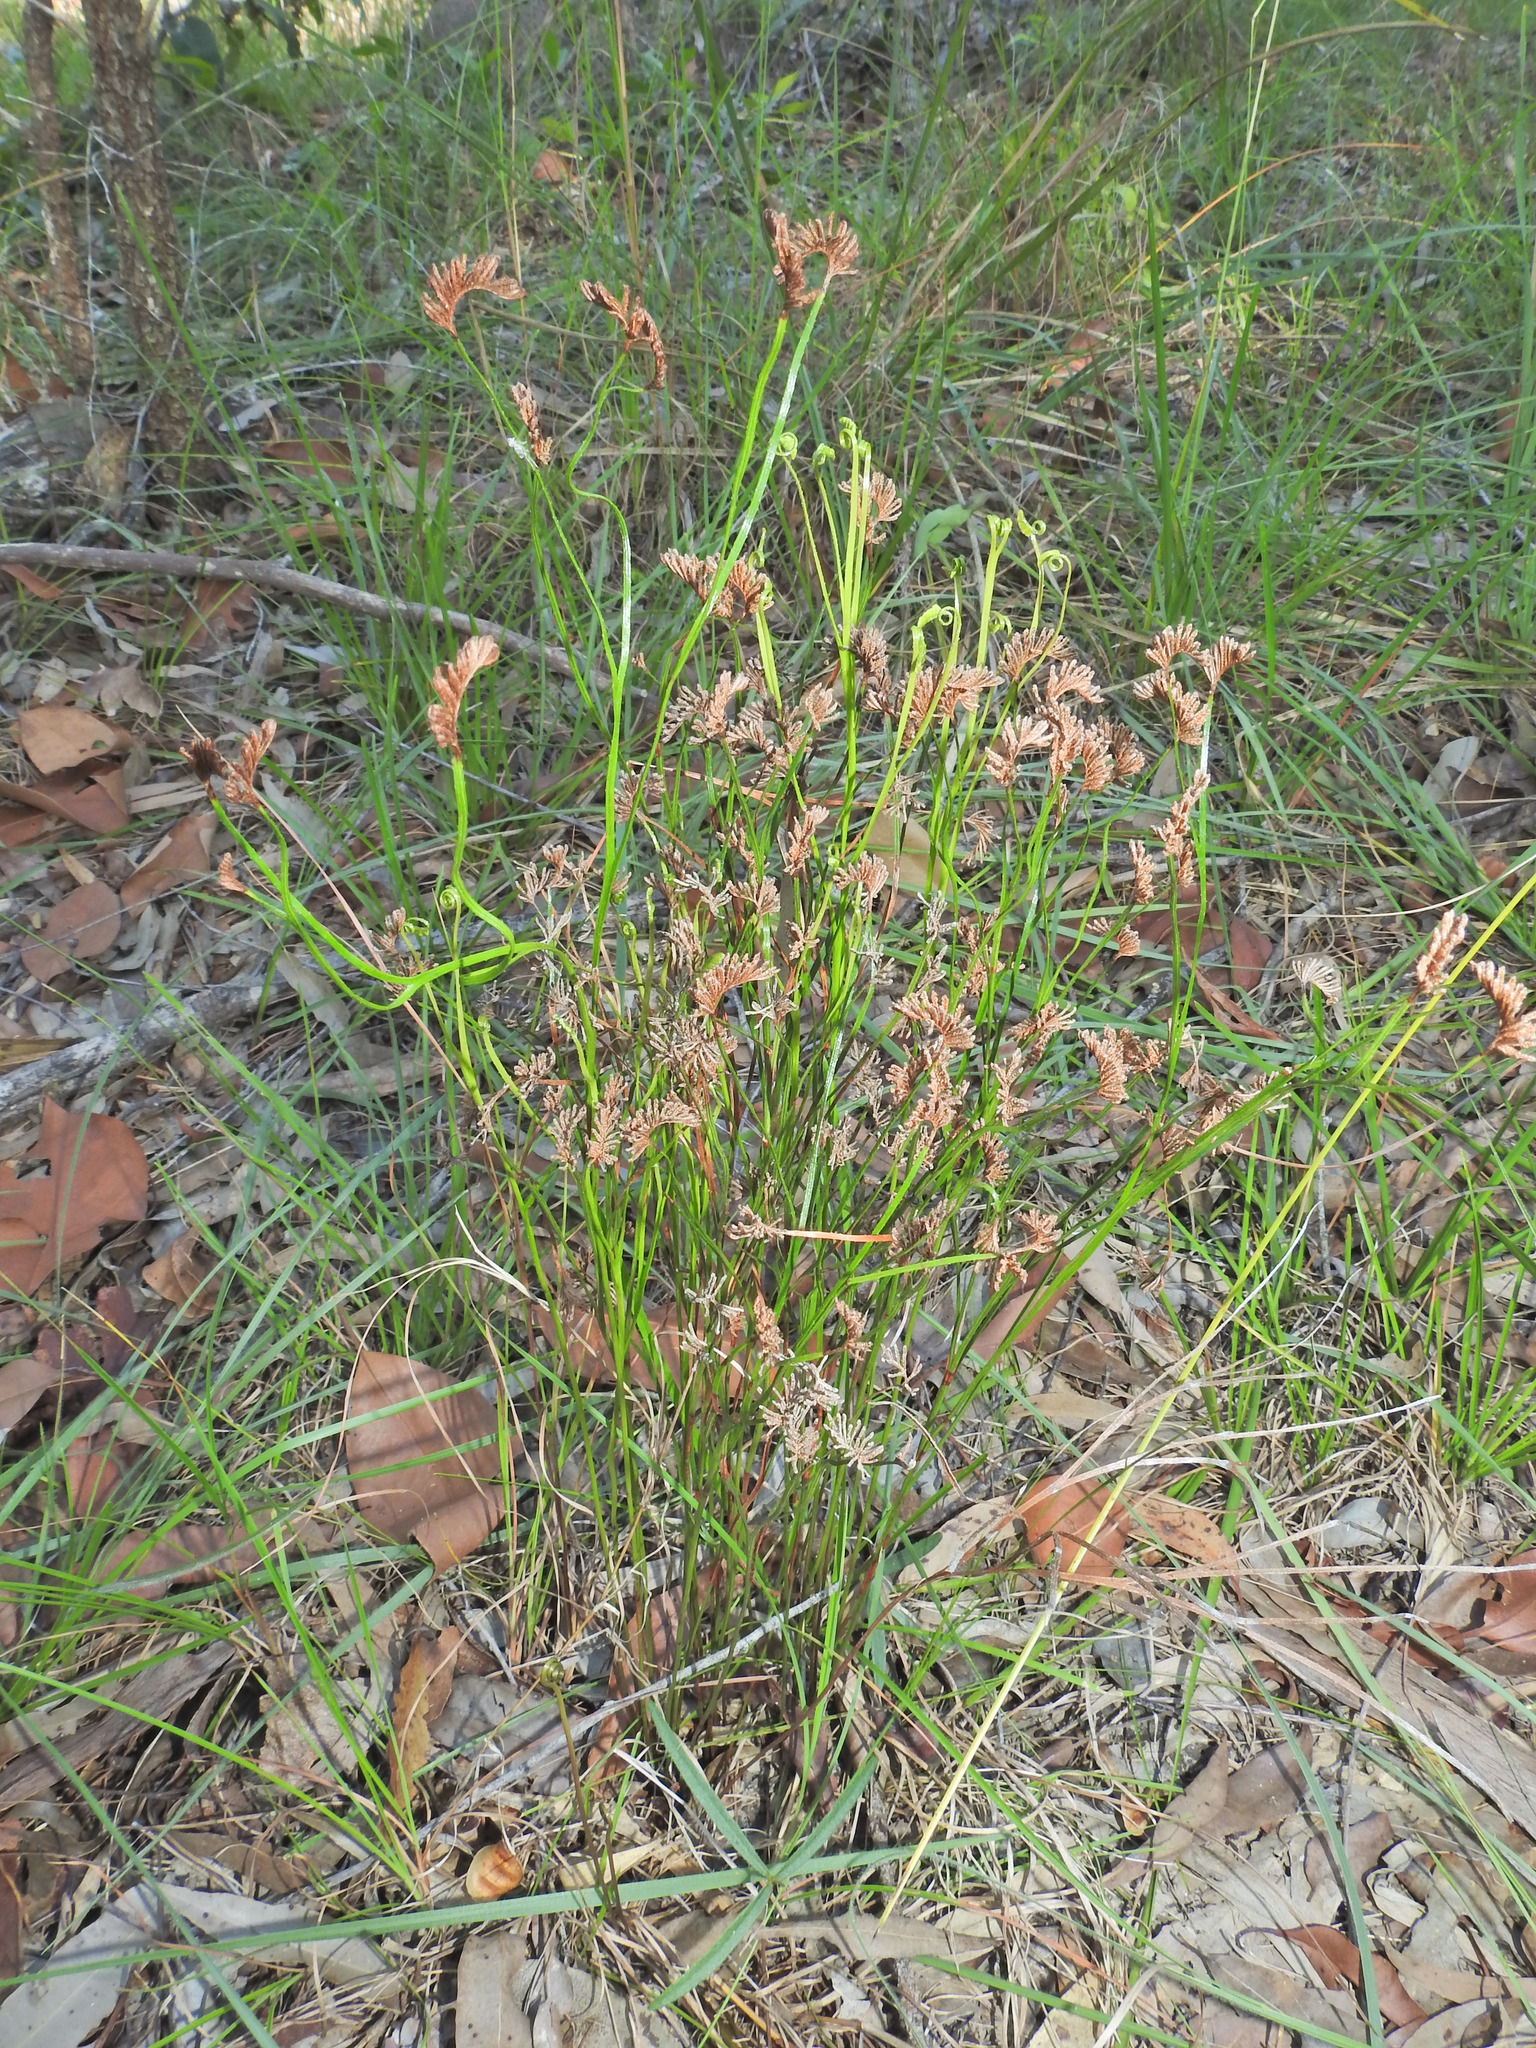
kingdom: Plantae
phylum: Tracheophyta
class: Polypodiopsida
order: Schizaeales
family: Schizaeaceae
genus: Schizaea
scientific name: Schizaea bifida
